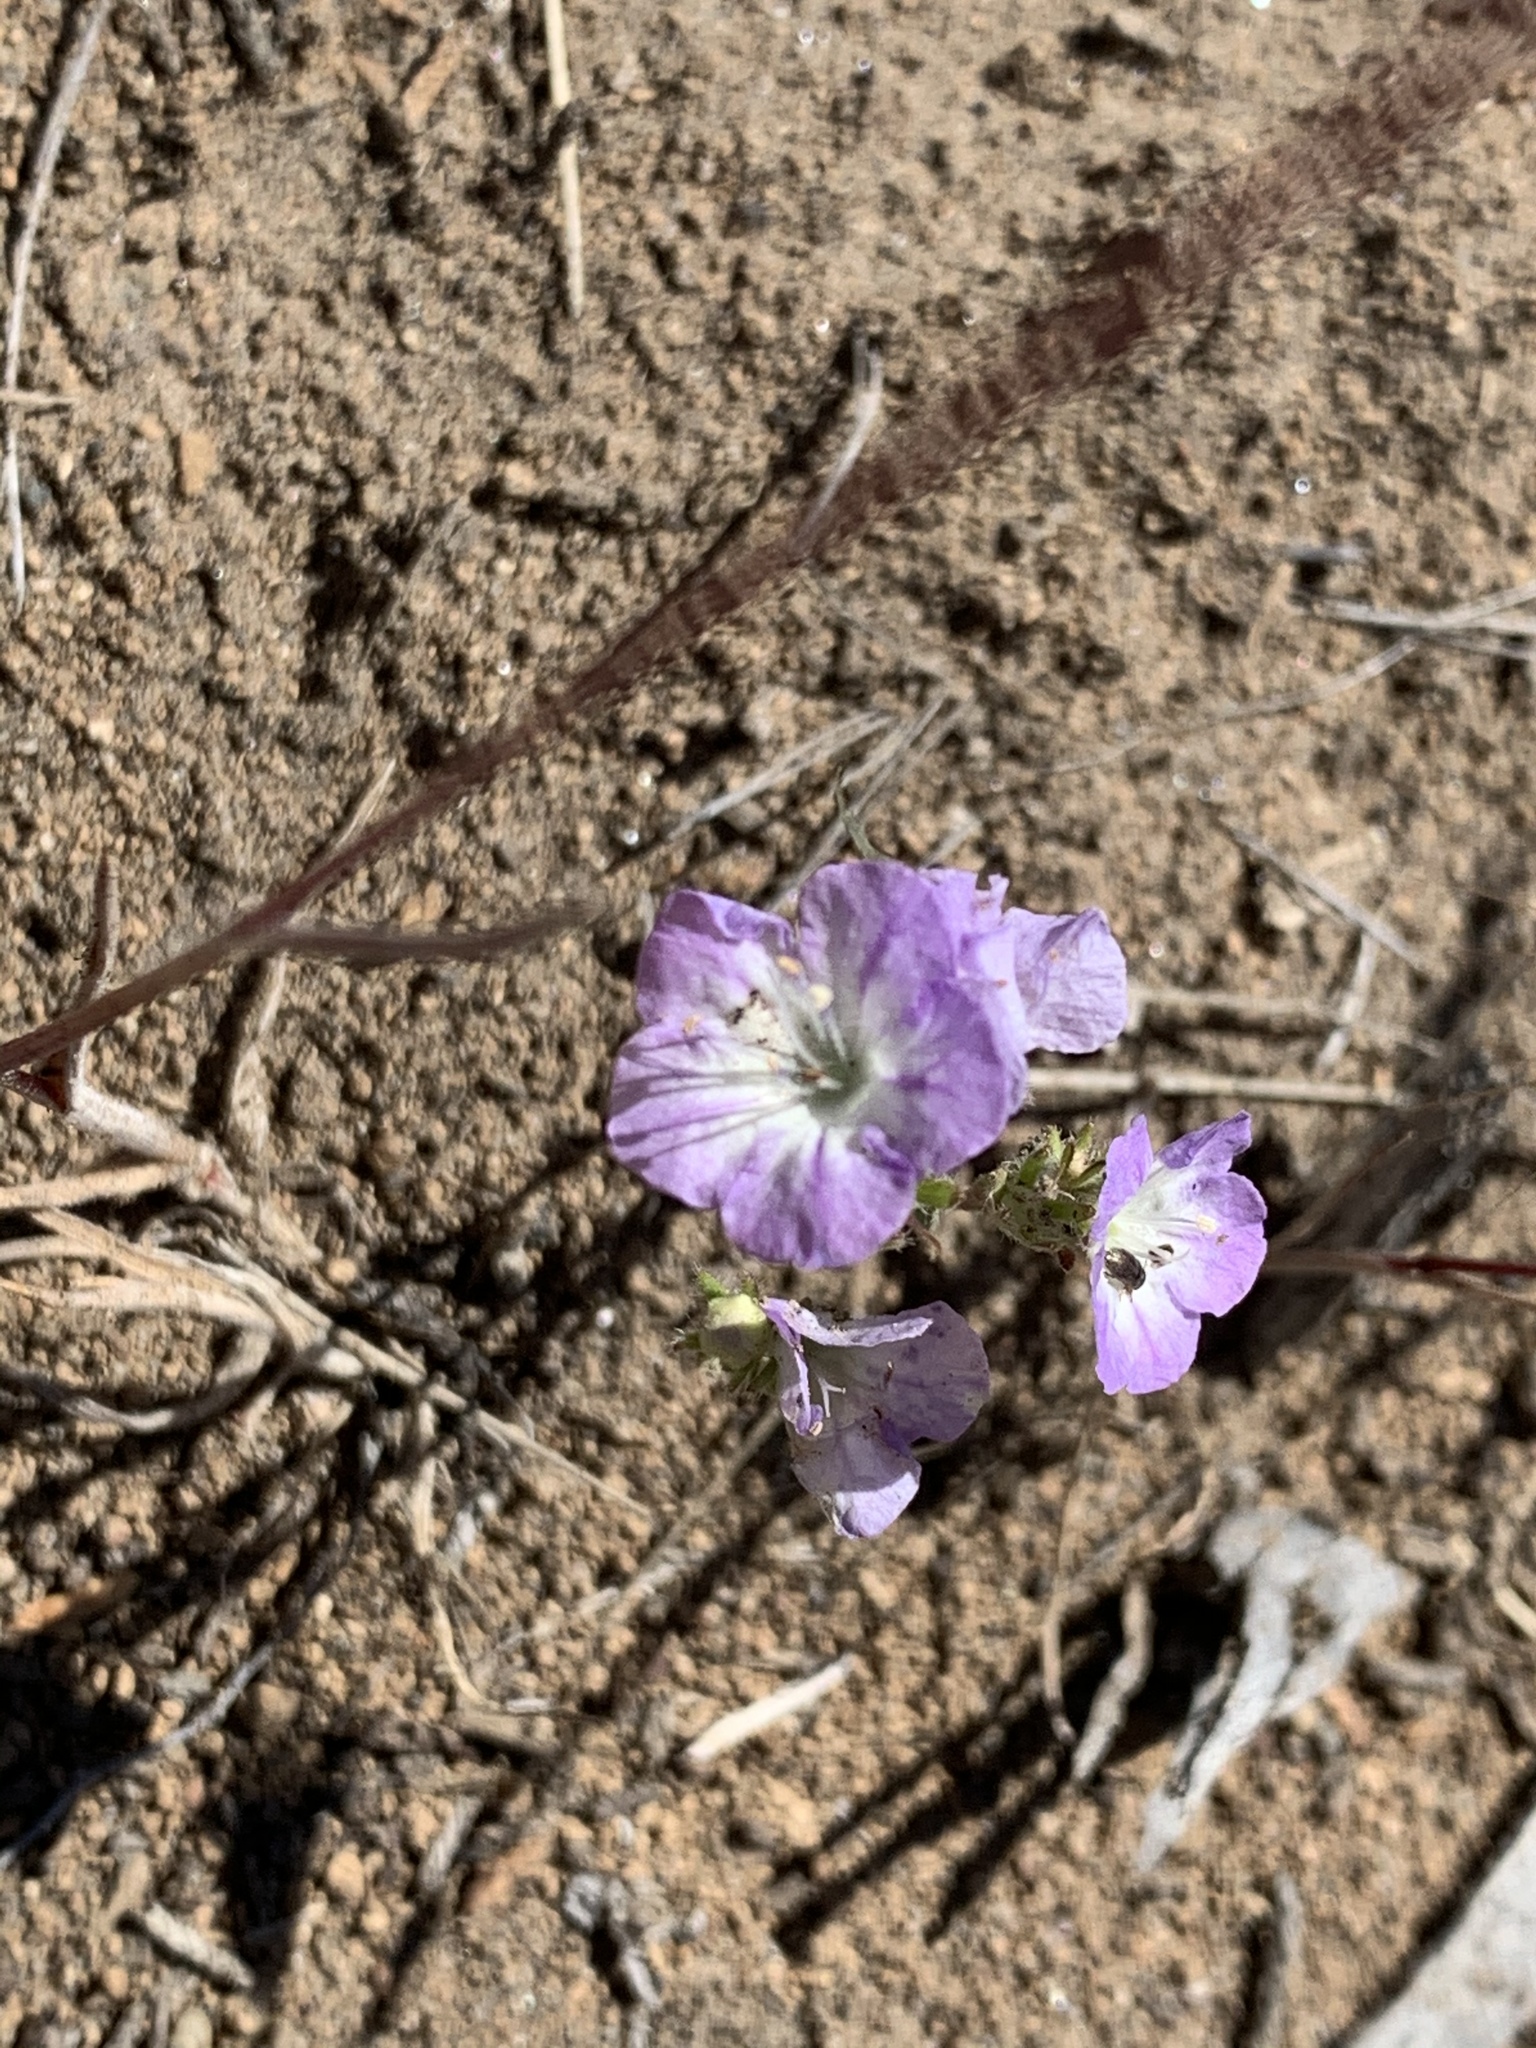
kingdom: Plantae
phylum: Tracheophyta
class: Magnoliopsida
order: Boraginales
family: Hydrophyllaceae
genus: Phacelia
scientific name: Phacelia linearis
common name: Linear-leaved phacelia
